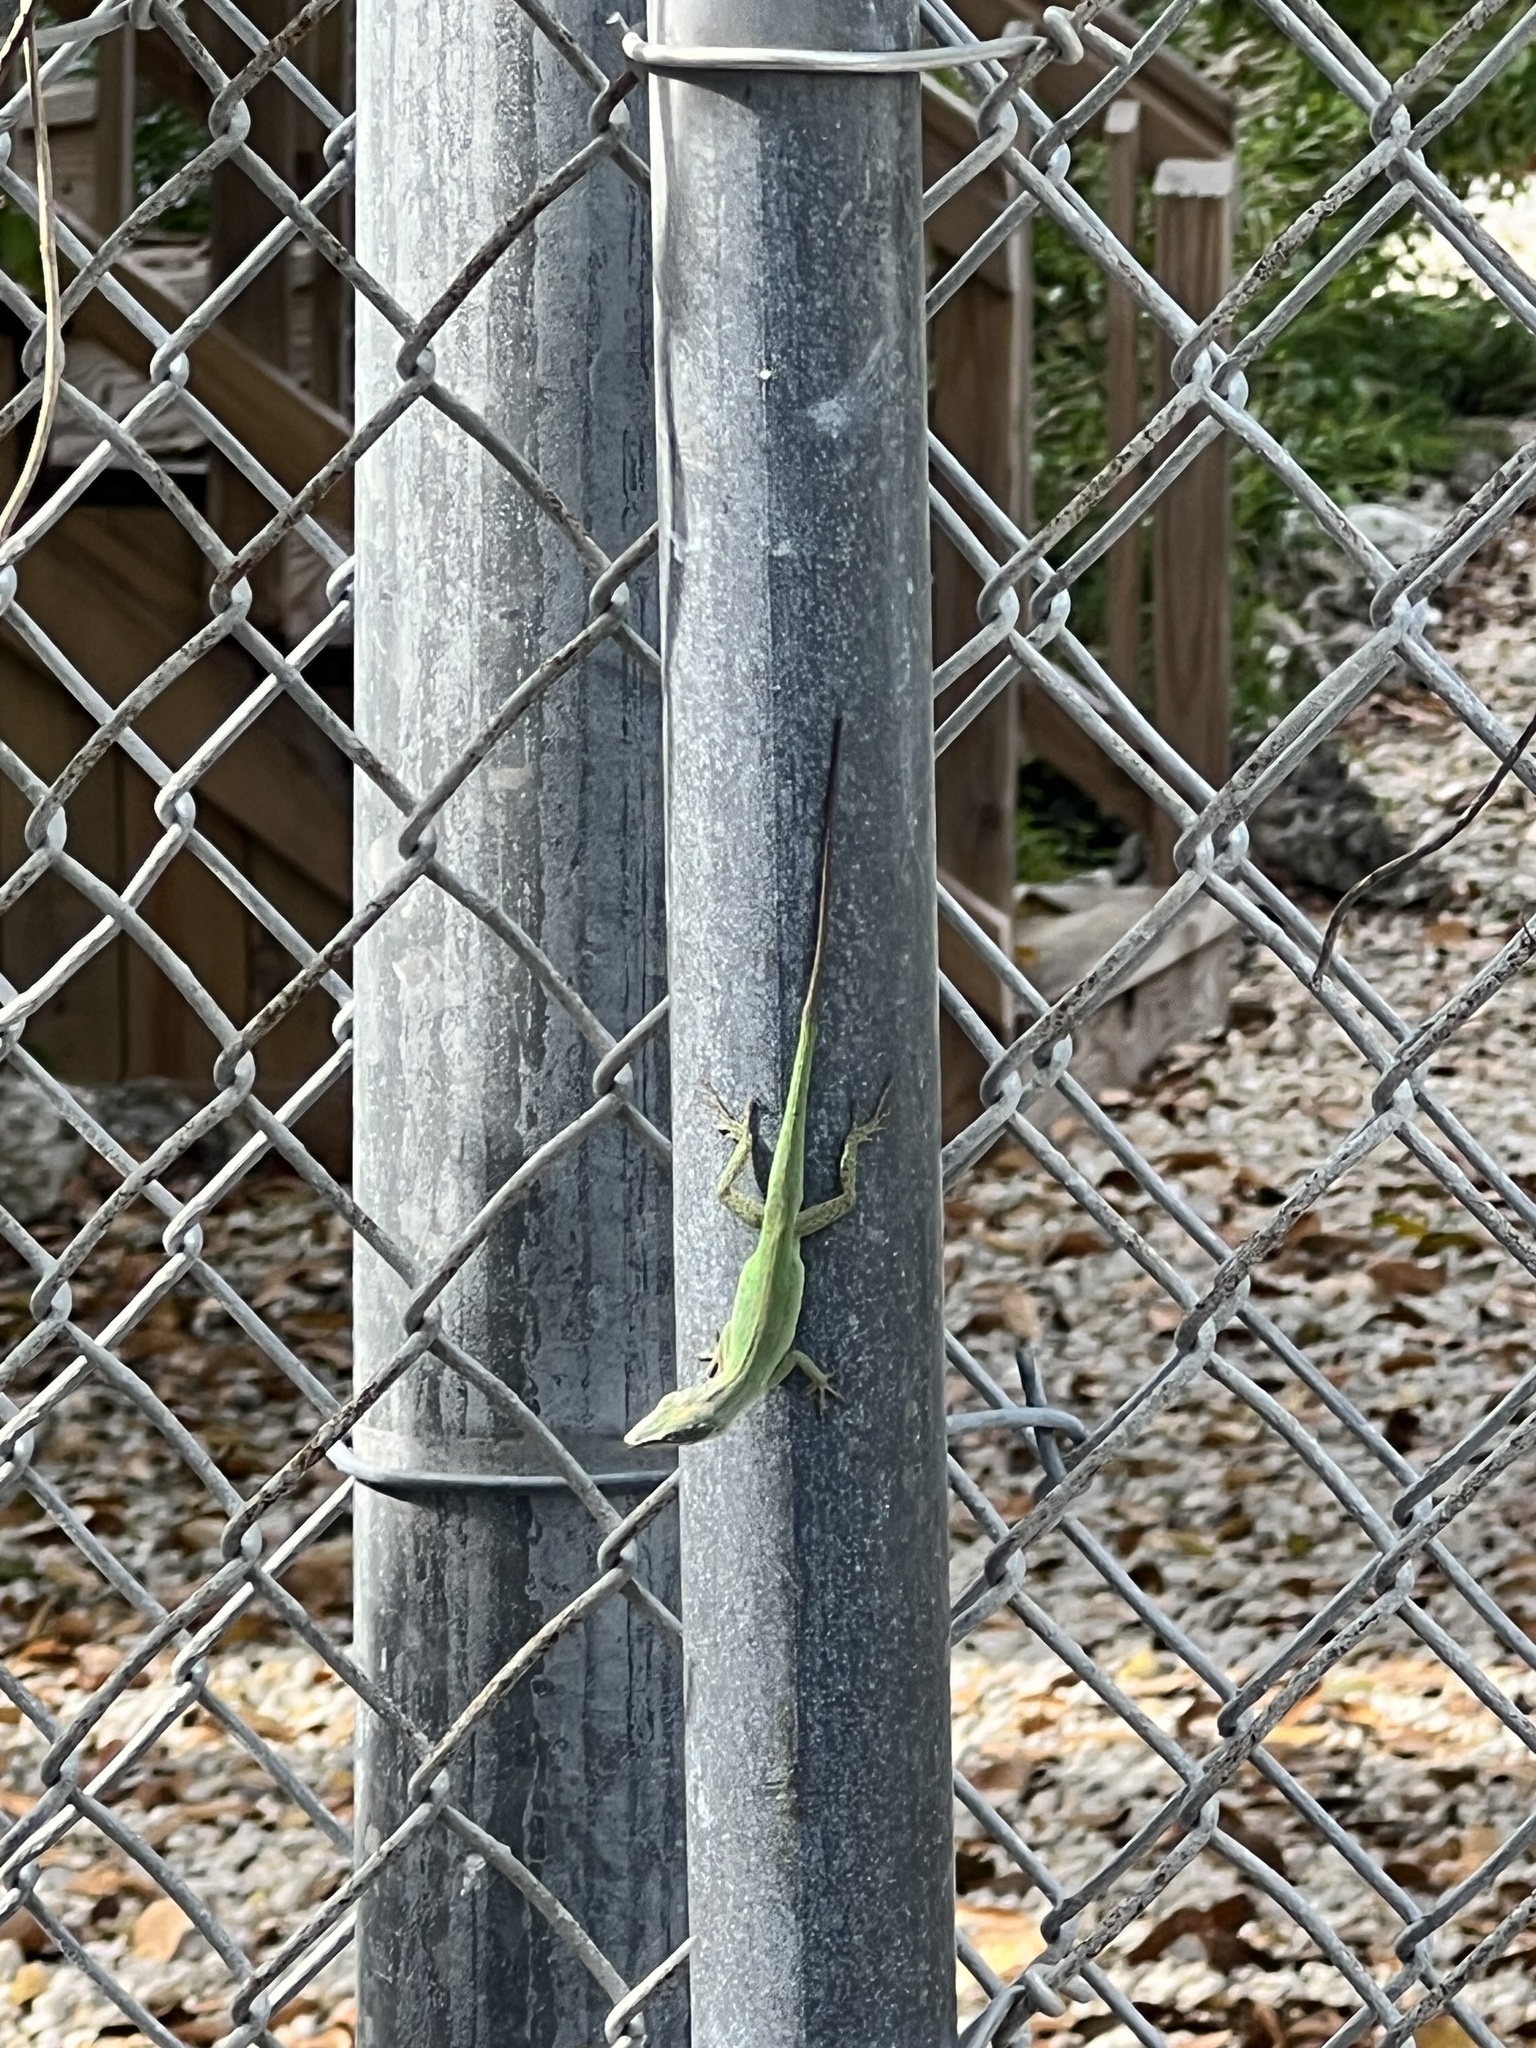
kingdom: Animalia
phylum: Chordata
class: Squamata
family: Dactyloidae
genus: Anolis
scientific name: Anolis carolinensis
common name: Green anole
